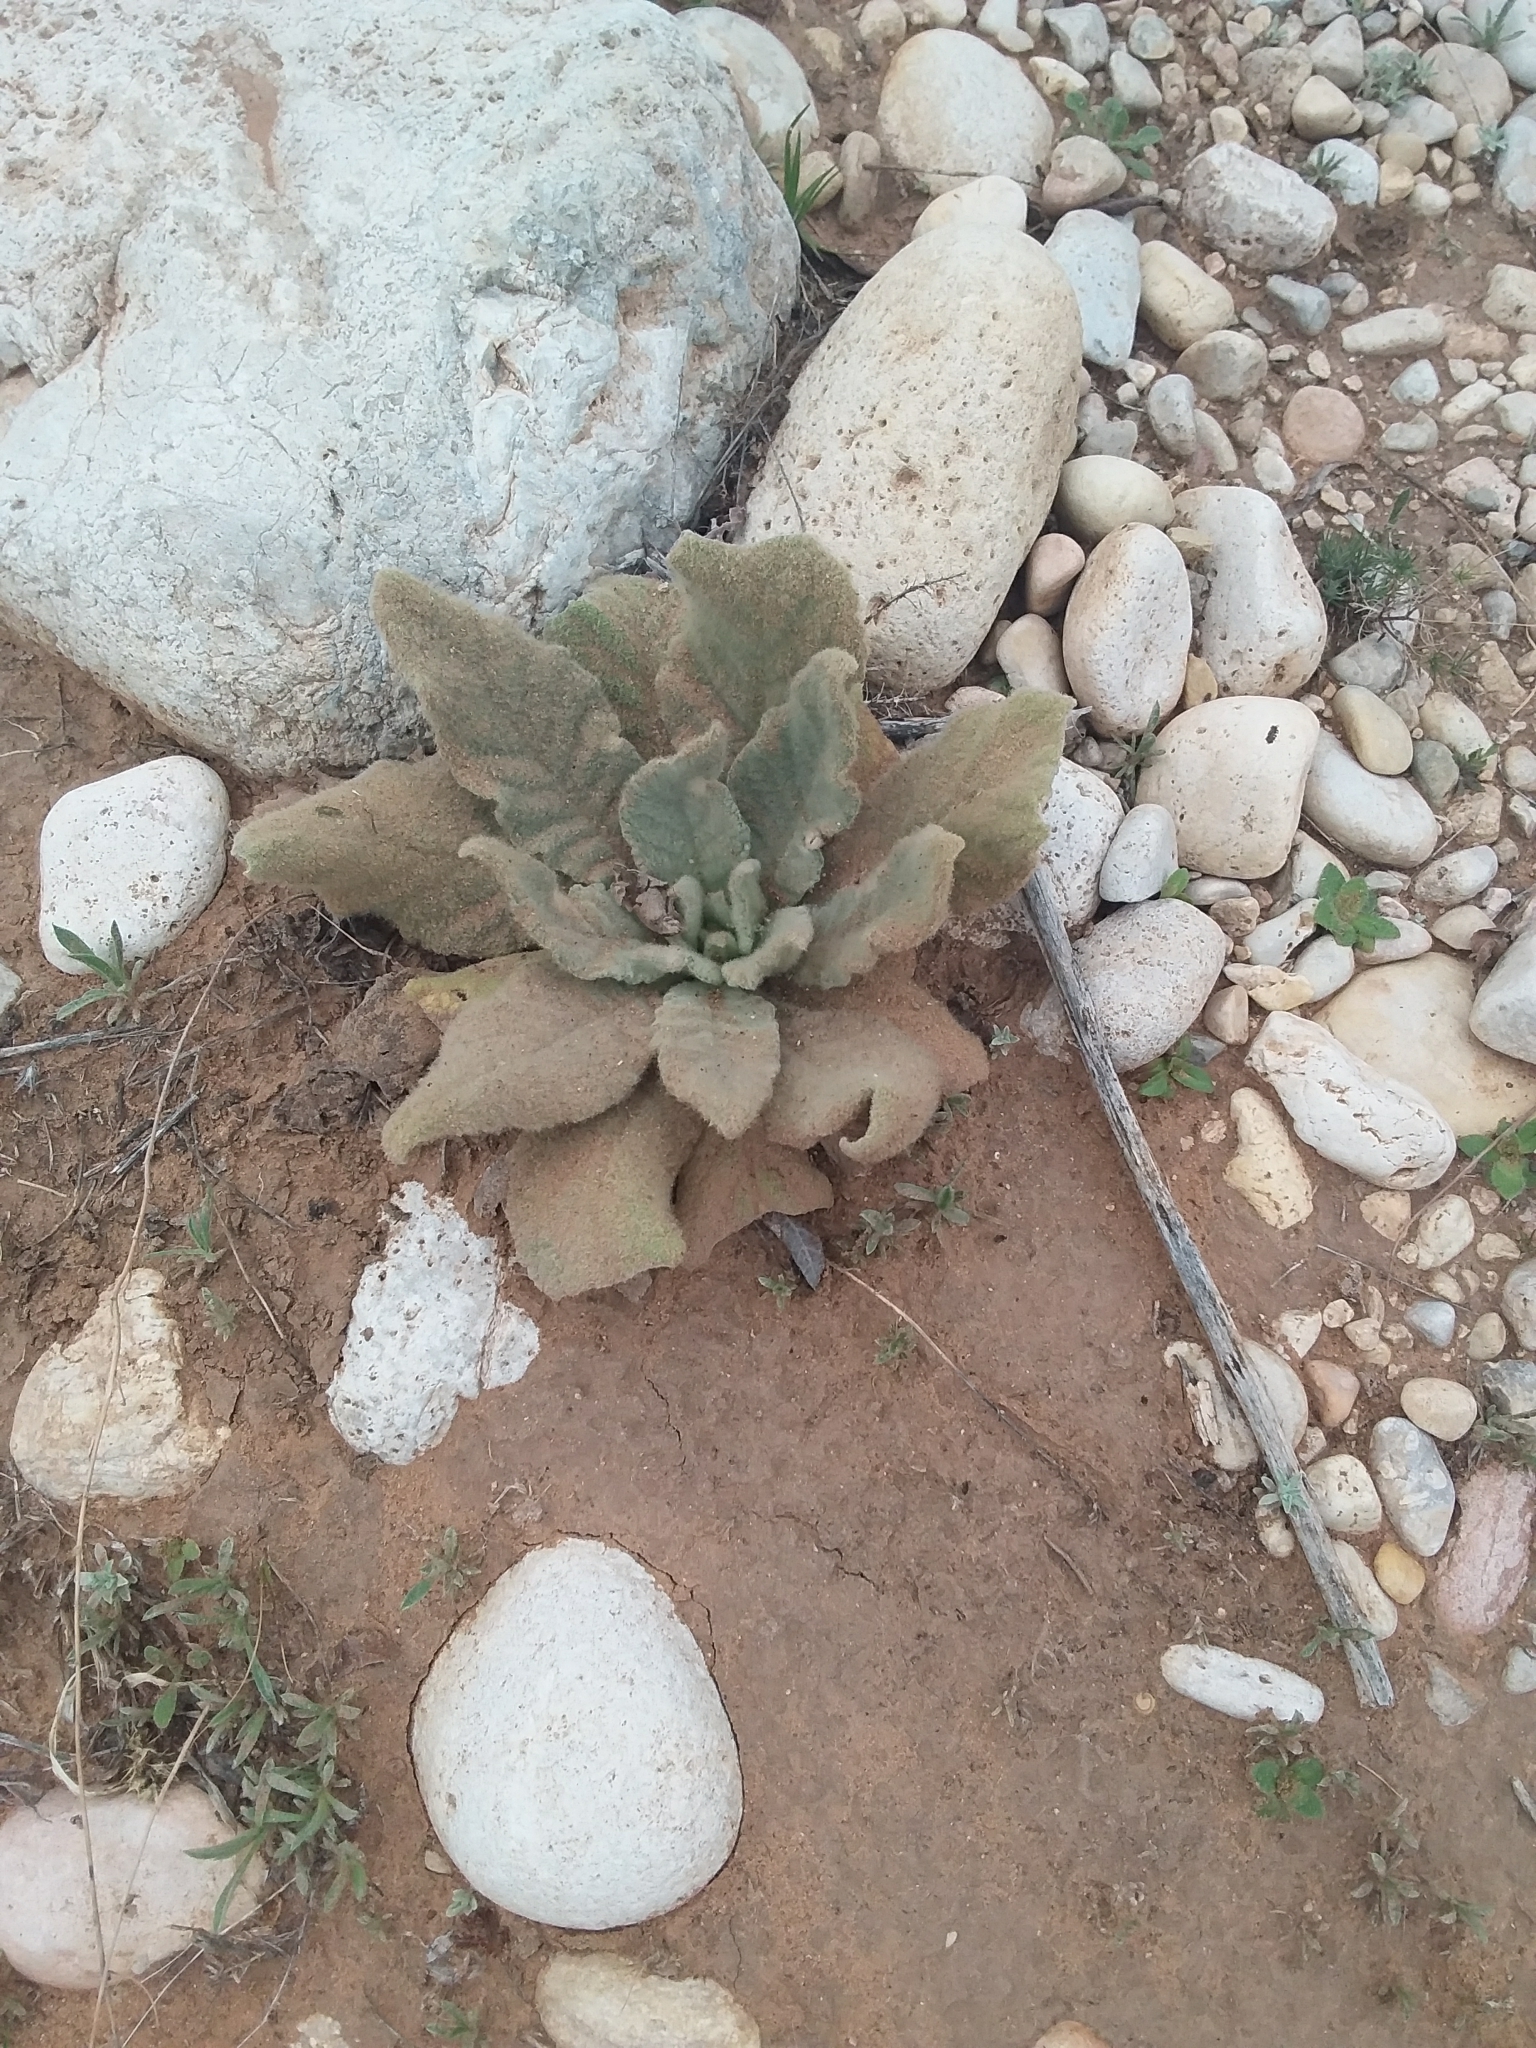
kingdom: Plantae
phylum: Tracheophyta
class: Magnoliopsida
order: Lamiales
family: Scrophulariaceae
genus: Verbascum
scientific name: Verbascum thapsus
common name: Common mullein
